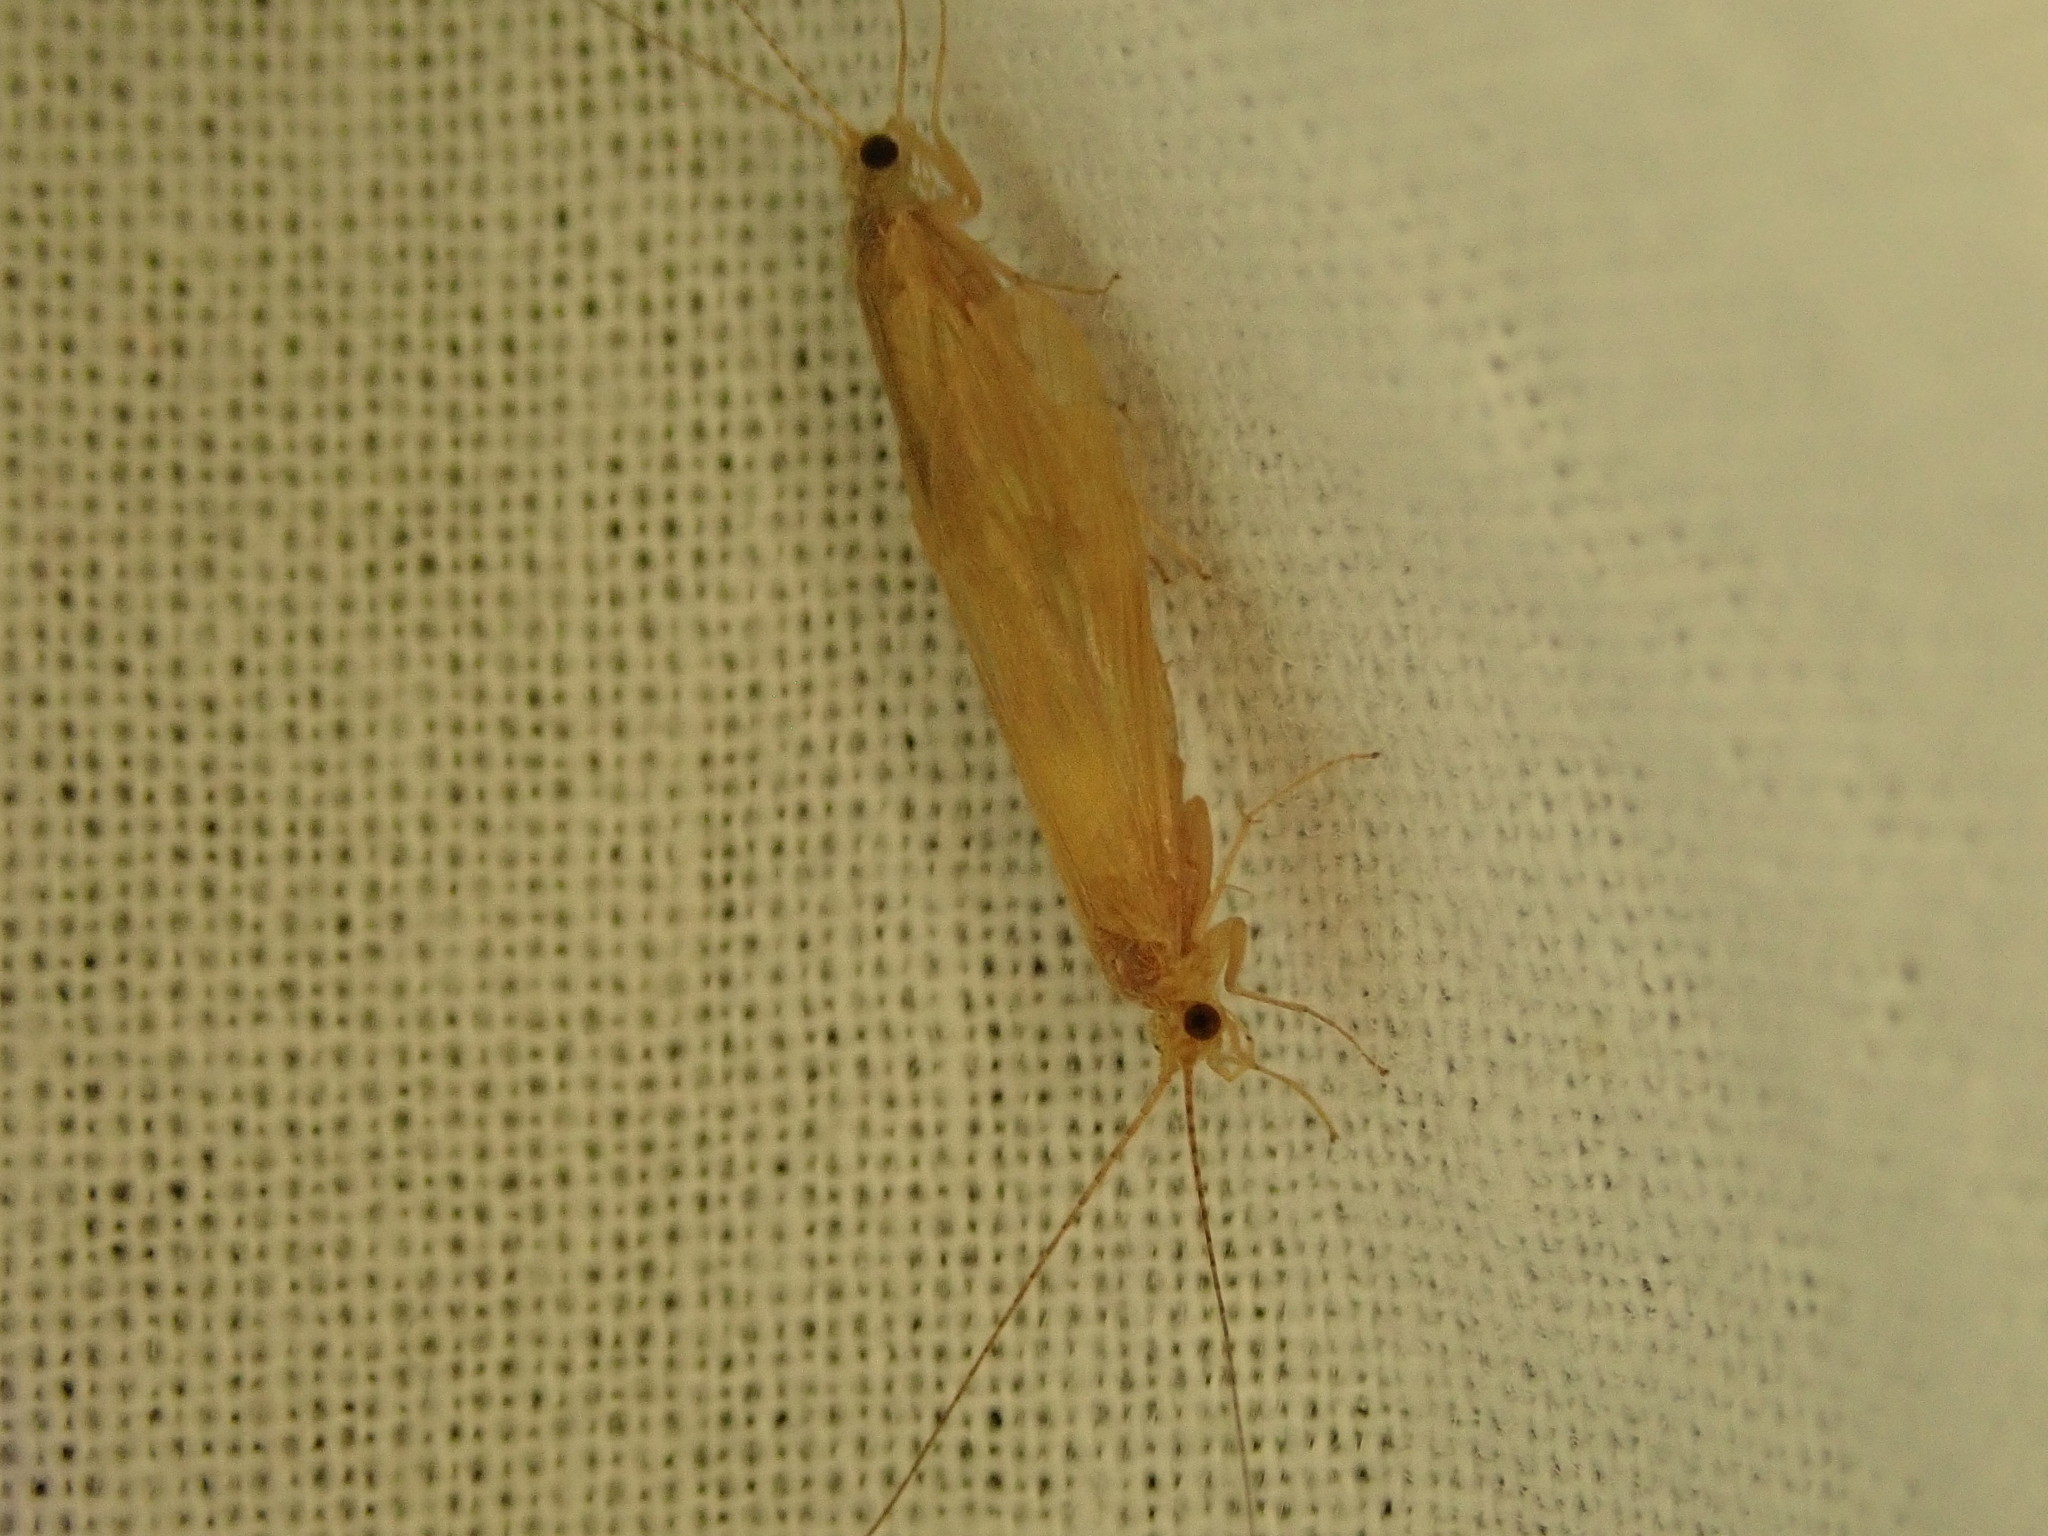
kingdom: Animalia
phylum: Arthropoda
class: Insecta
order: Trichoptera
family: Hydropsychidae
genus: Potamyia
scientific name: Potamyia flava
